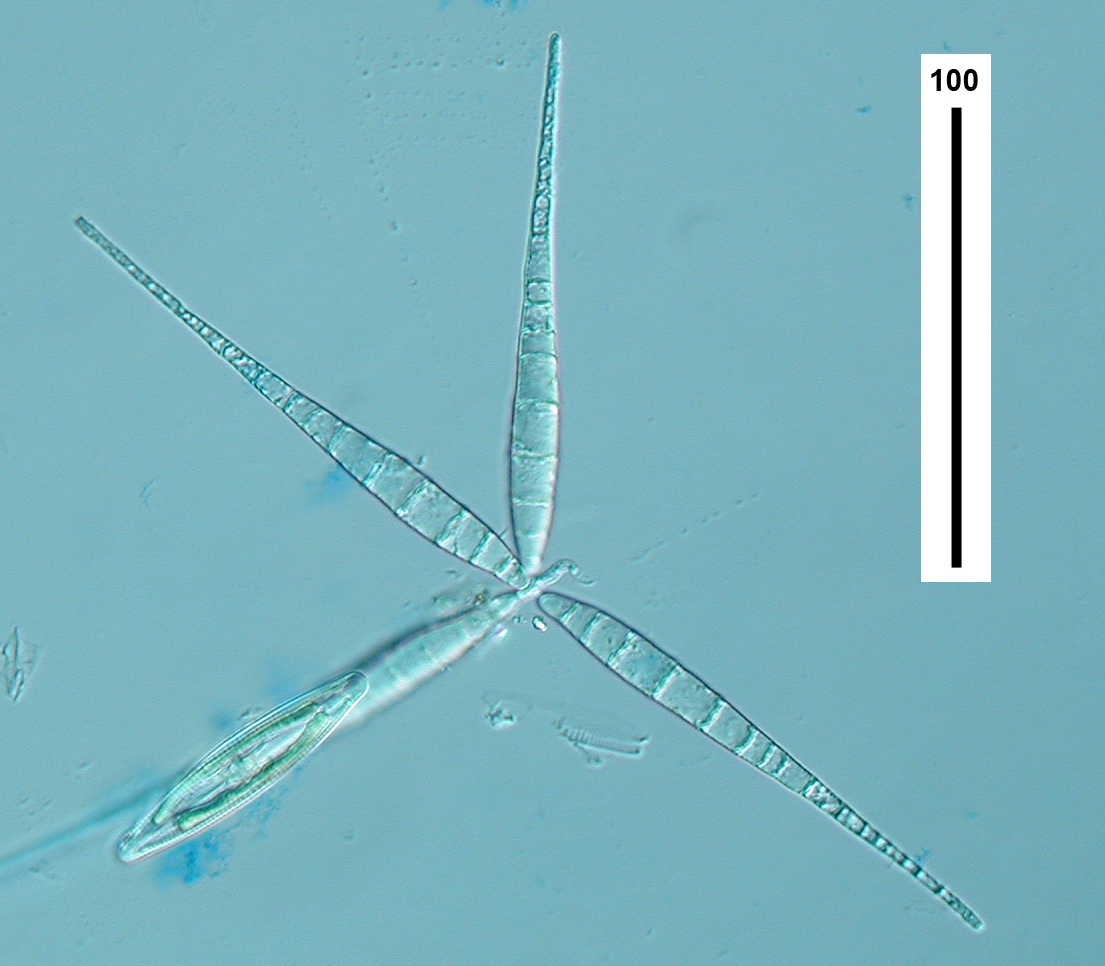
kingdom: Fungi
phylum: Ascomycota
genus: Flabellospora
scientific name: Flabellospora acuminata
